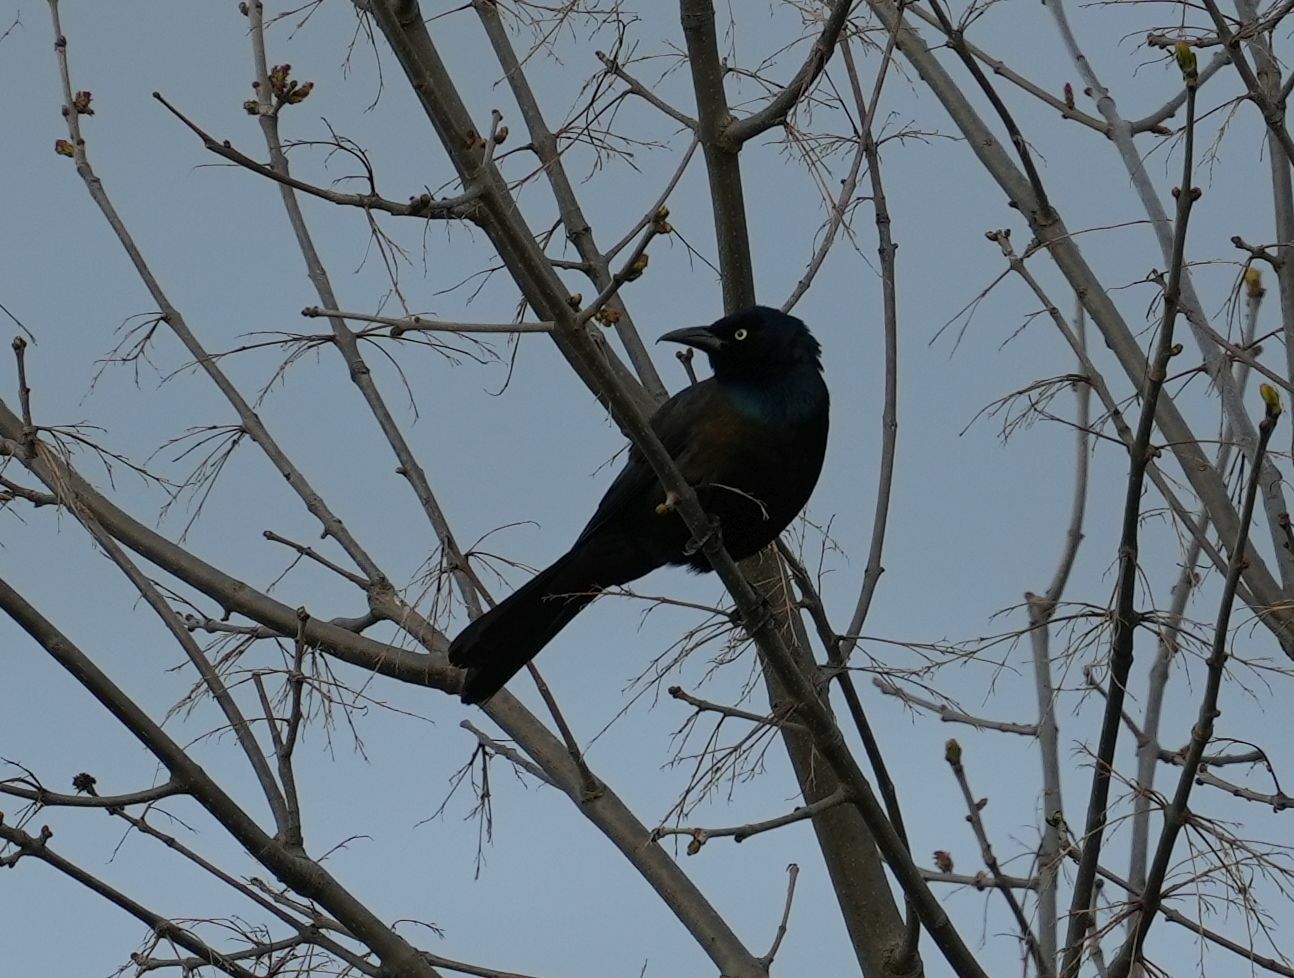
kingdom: Animalia
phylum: Chordata
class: Aves
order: Passeriformes
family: Icteridae
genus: Quiscalus
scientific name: Quiscalus quiscula
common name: Common grackle
